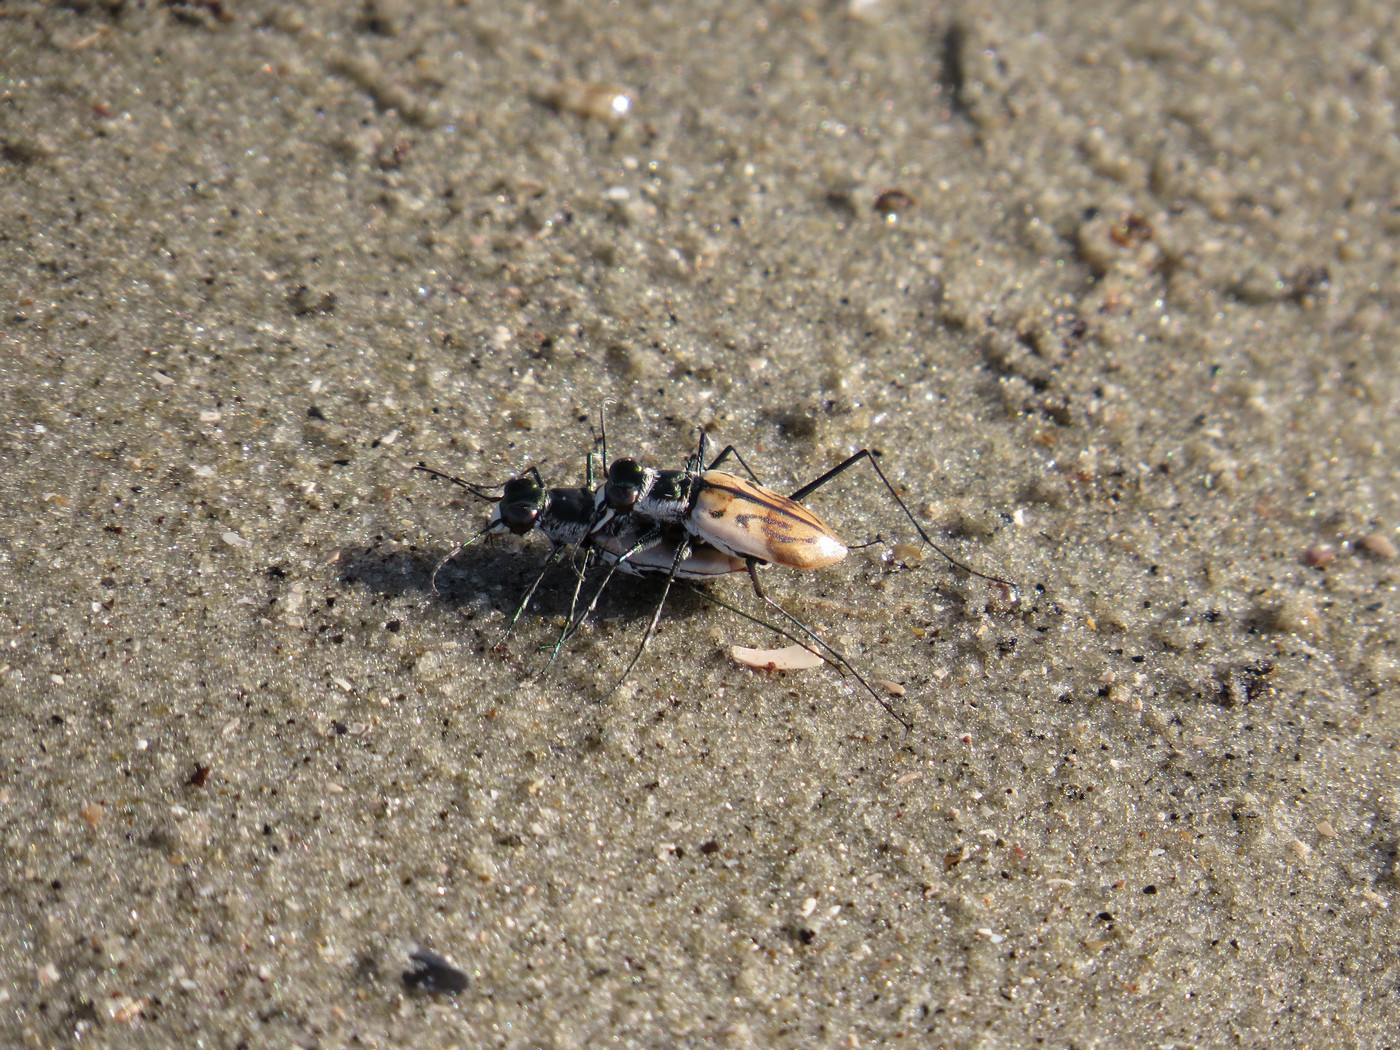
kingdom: Animalia
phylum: Arthropoda
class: Insecta
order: Coleoptera
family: Carabidae
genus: Habroscelimorpha
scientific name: Habroscelimorpha dorsalis
